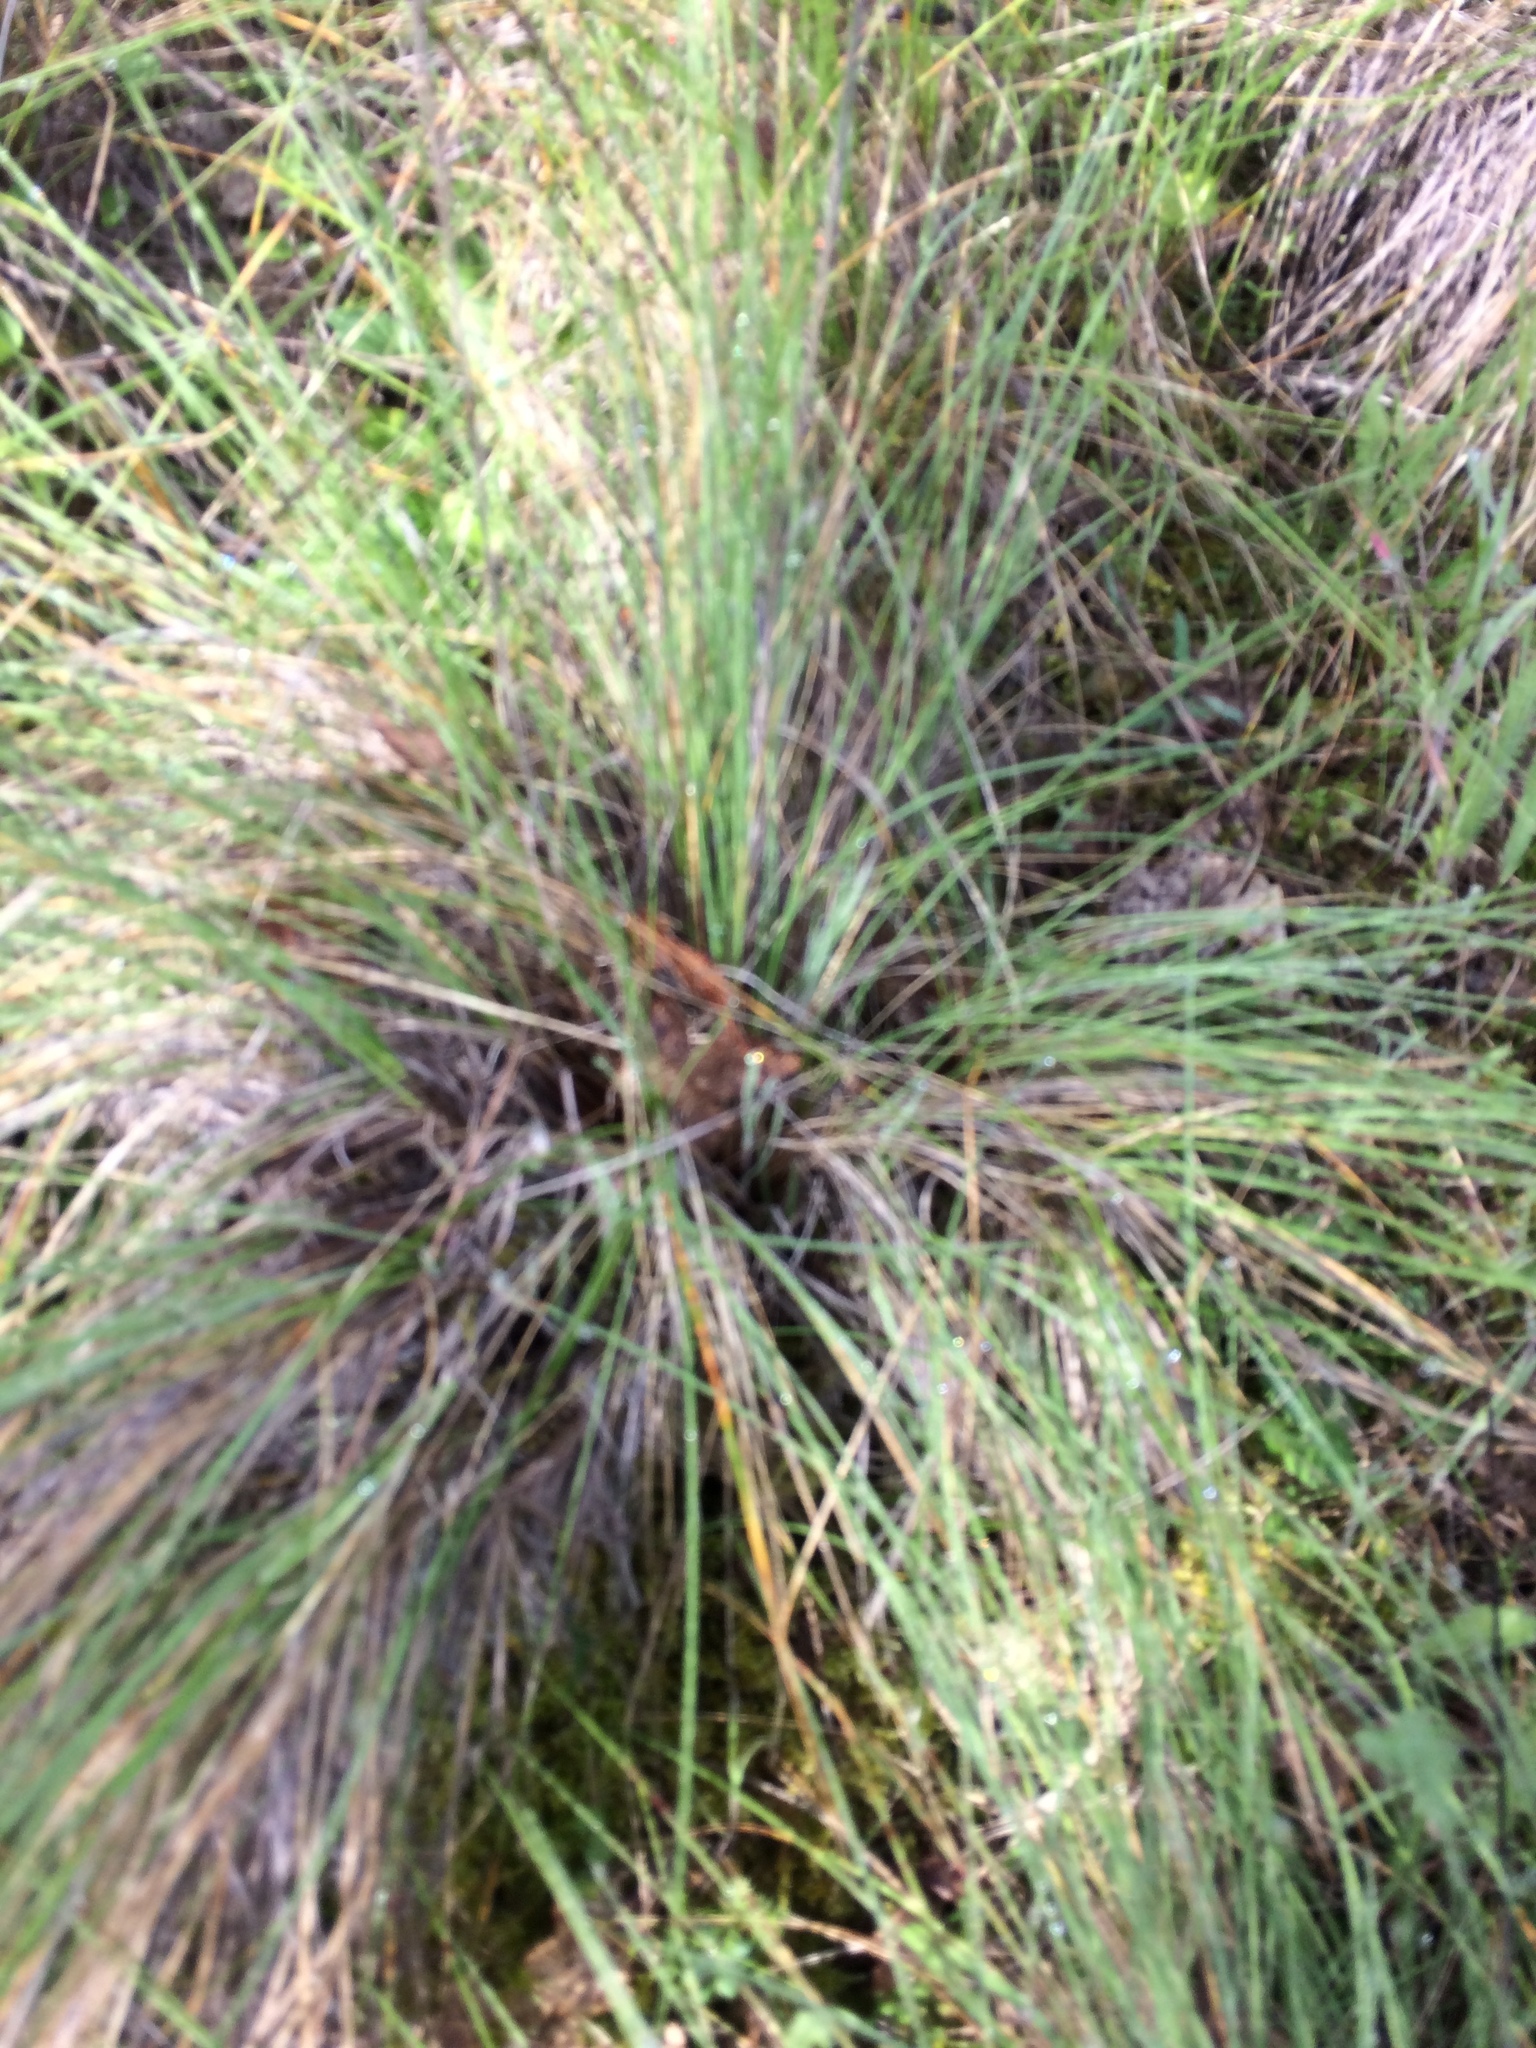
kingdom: Plantae
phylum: Tracheophyta
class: Liliopsida
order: Poales
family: Poaceae
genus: Festuca
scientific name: Festuca californica
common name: California fescue
